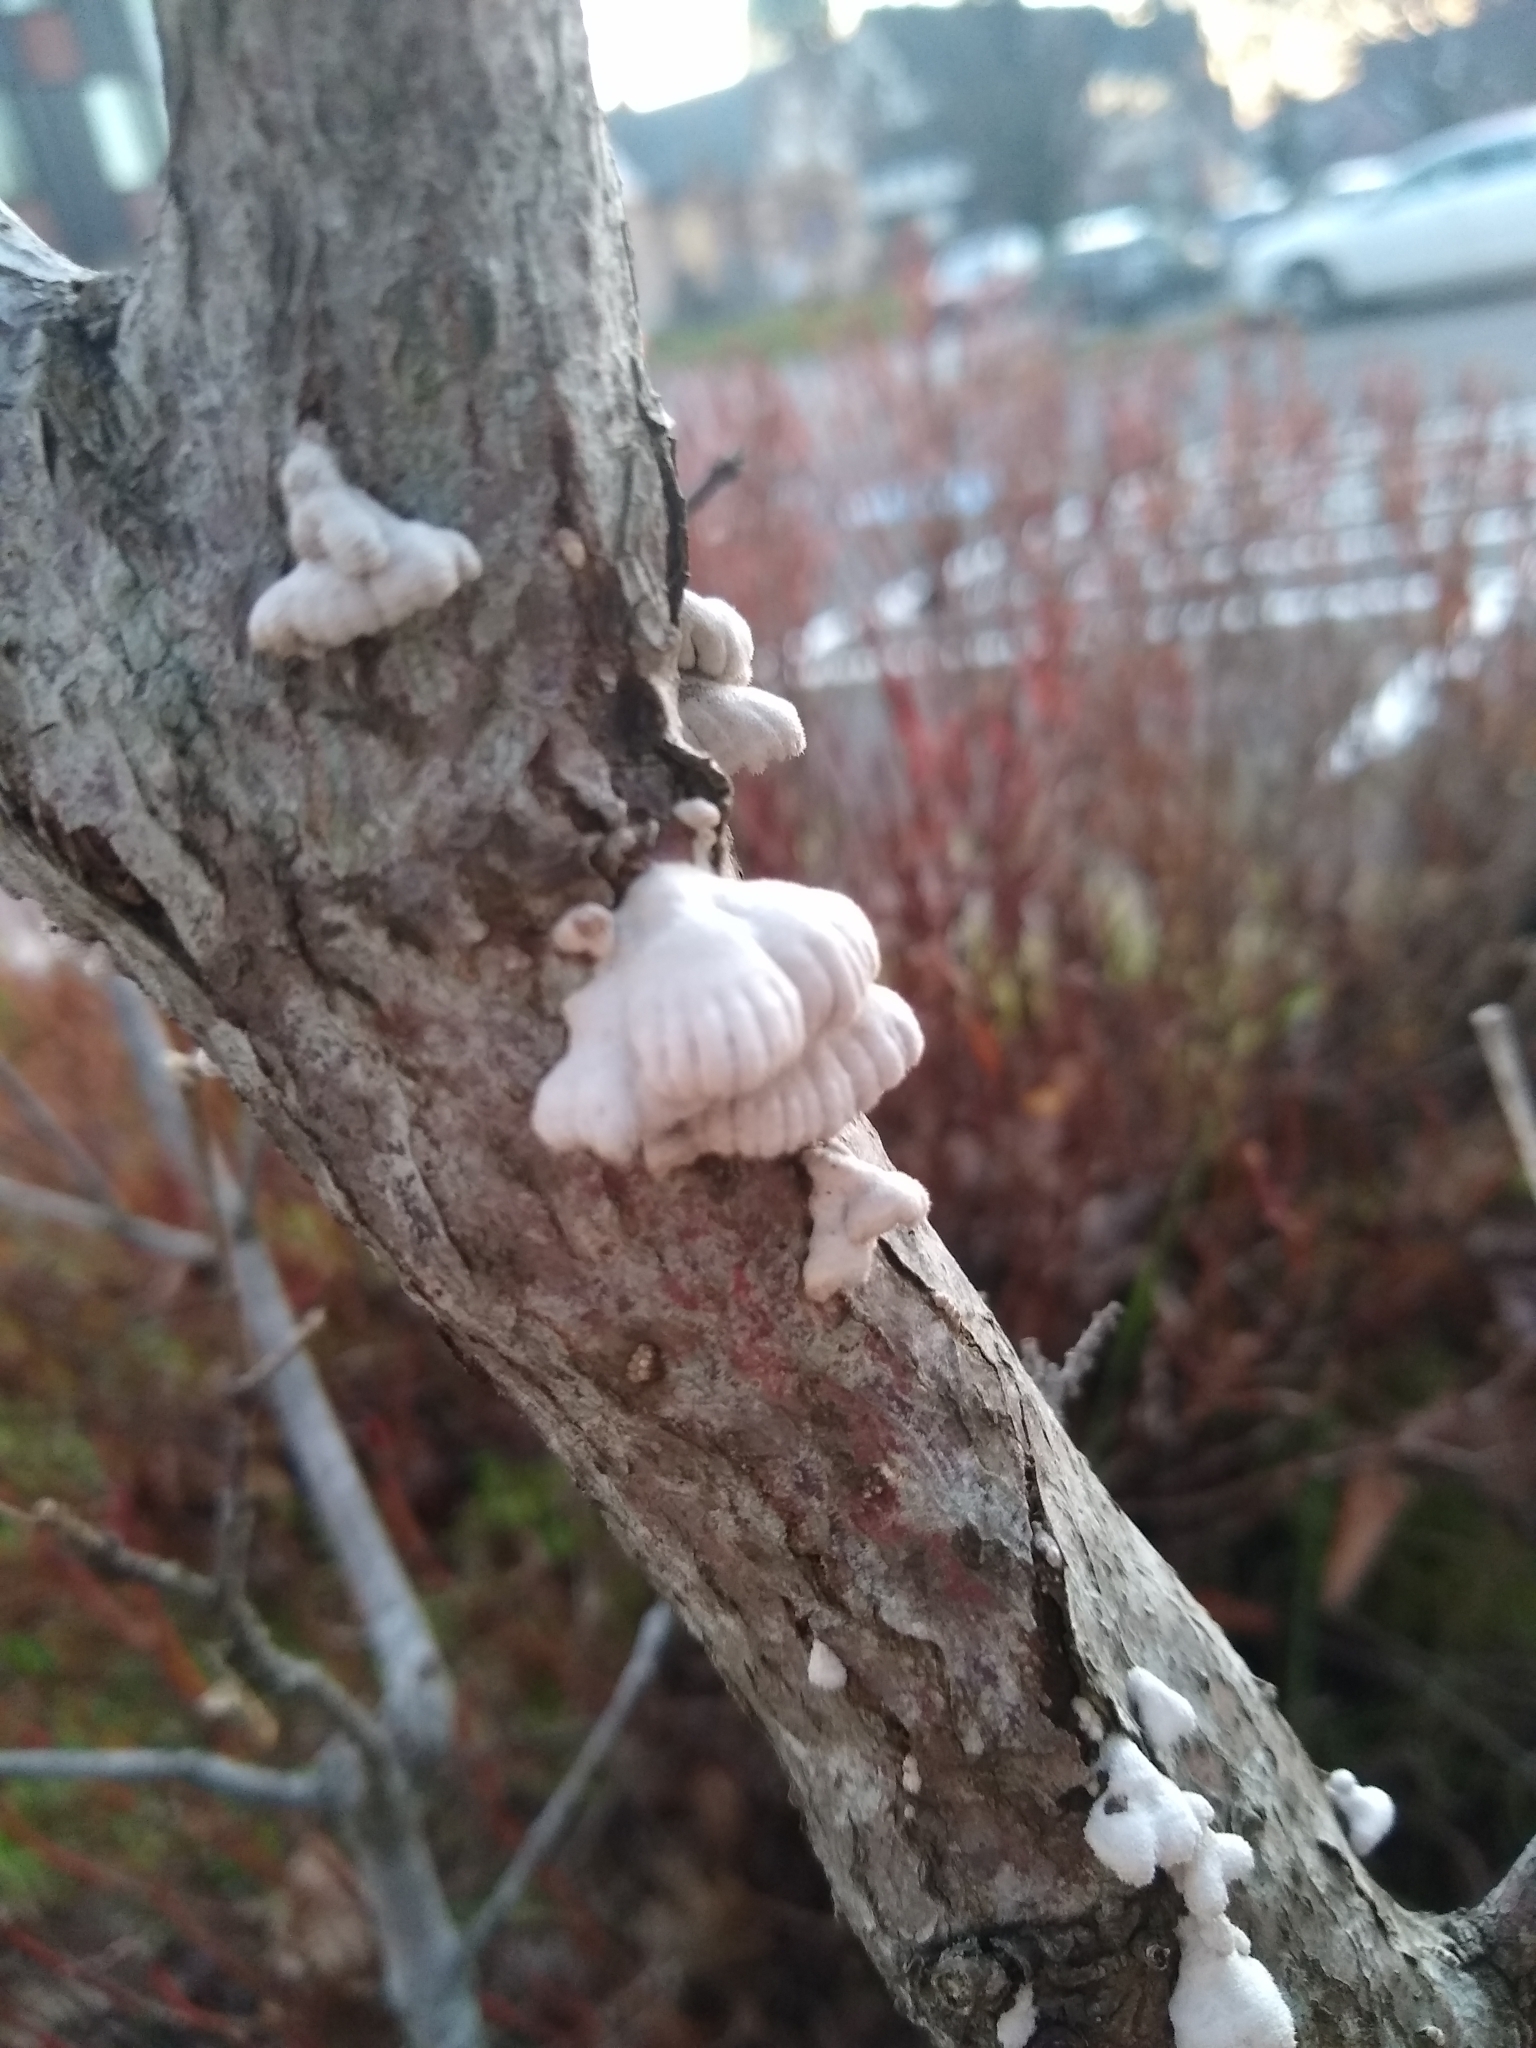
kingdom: Fungi
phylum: Basidiomycota
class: Agaricomycetes
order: Agaricales
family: Schizophyllaceae
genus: Schizophyllum
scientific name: Schizophyllum commune
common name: Common porecrust
